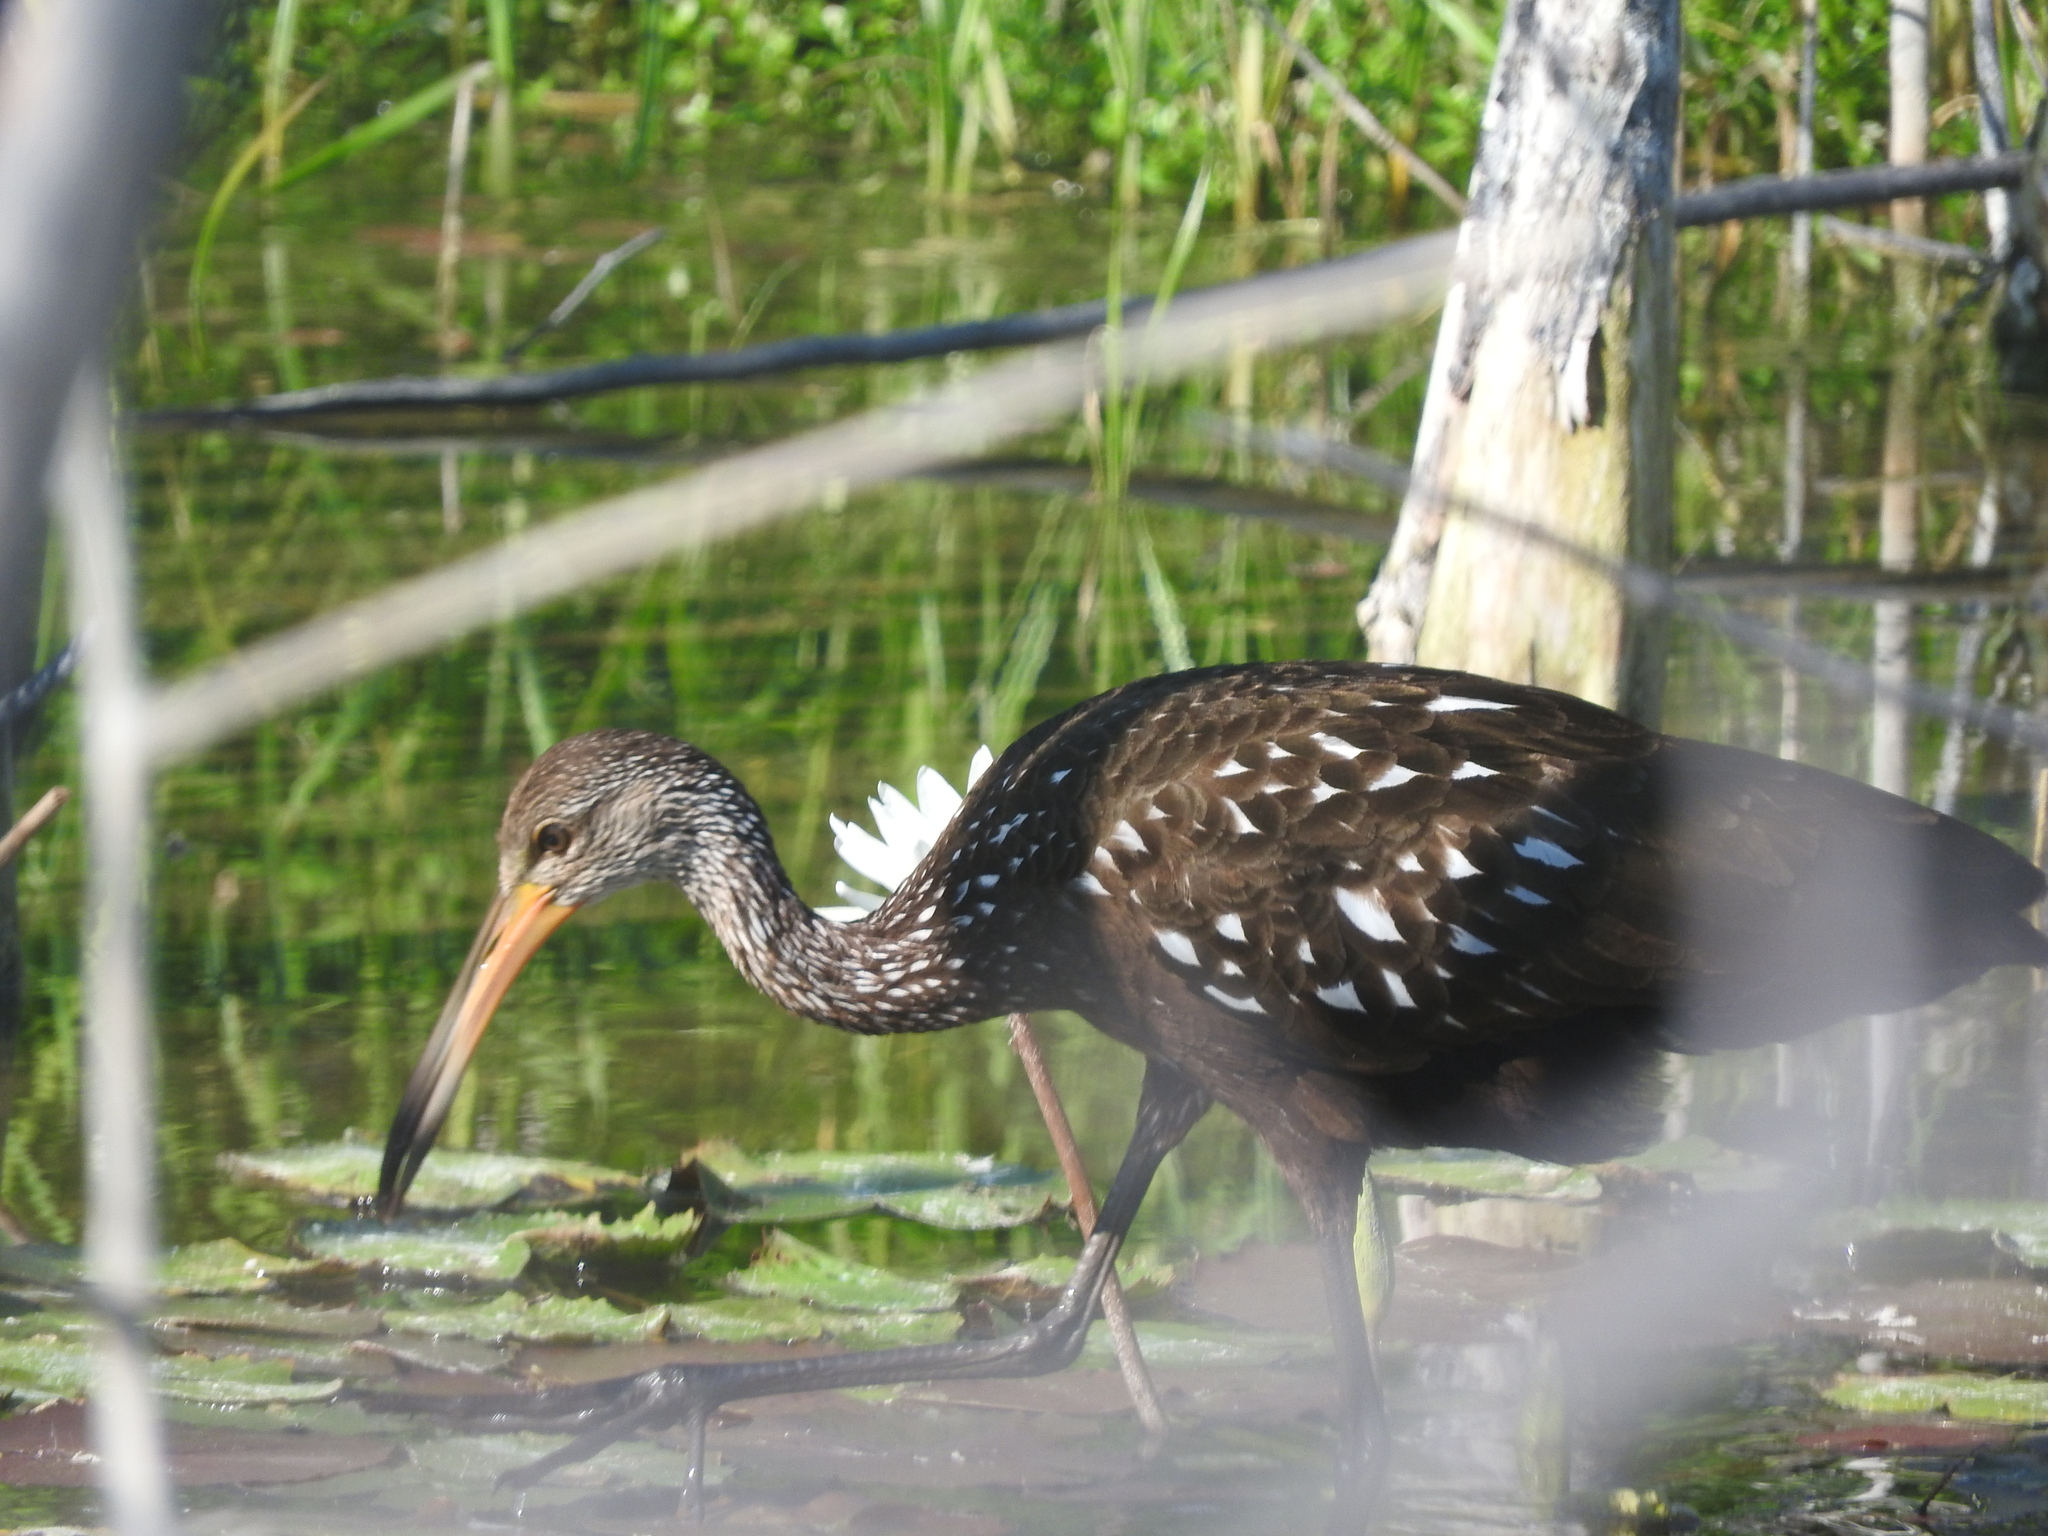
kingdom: Animalia
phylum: Chordata
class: Aves
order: Gruiformes
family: Aramidae
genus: Aramus
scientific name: Aramus guarauna
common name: Limpkin
